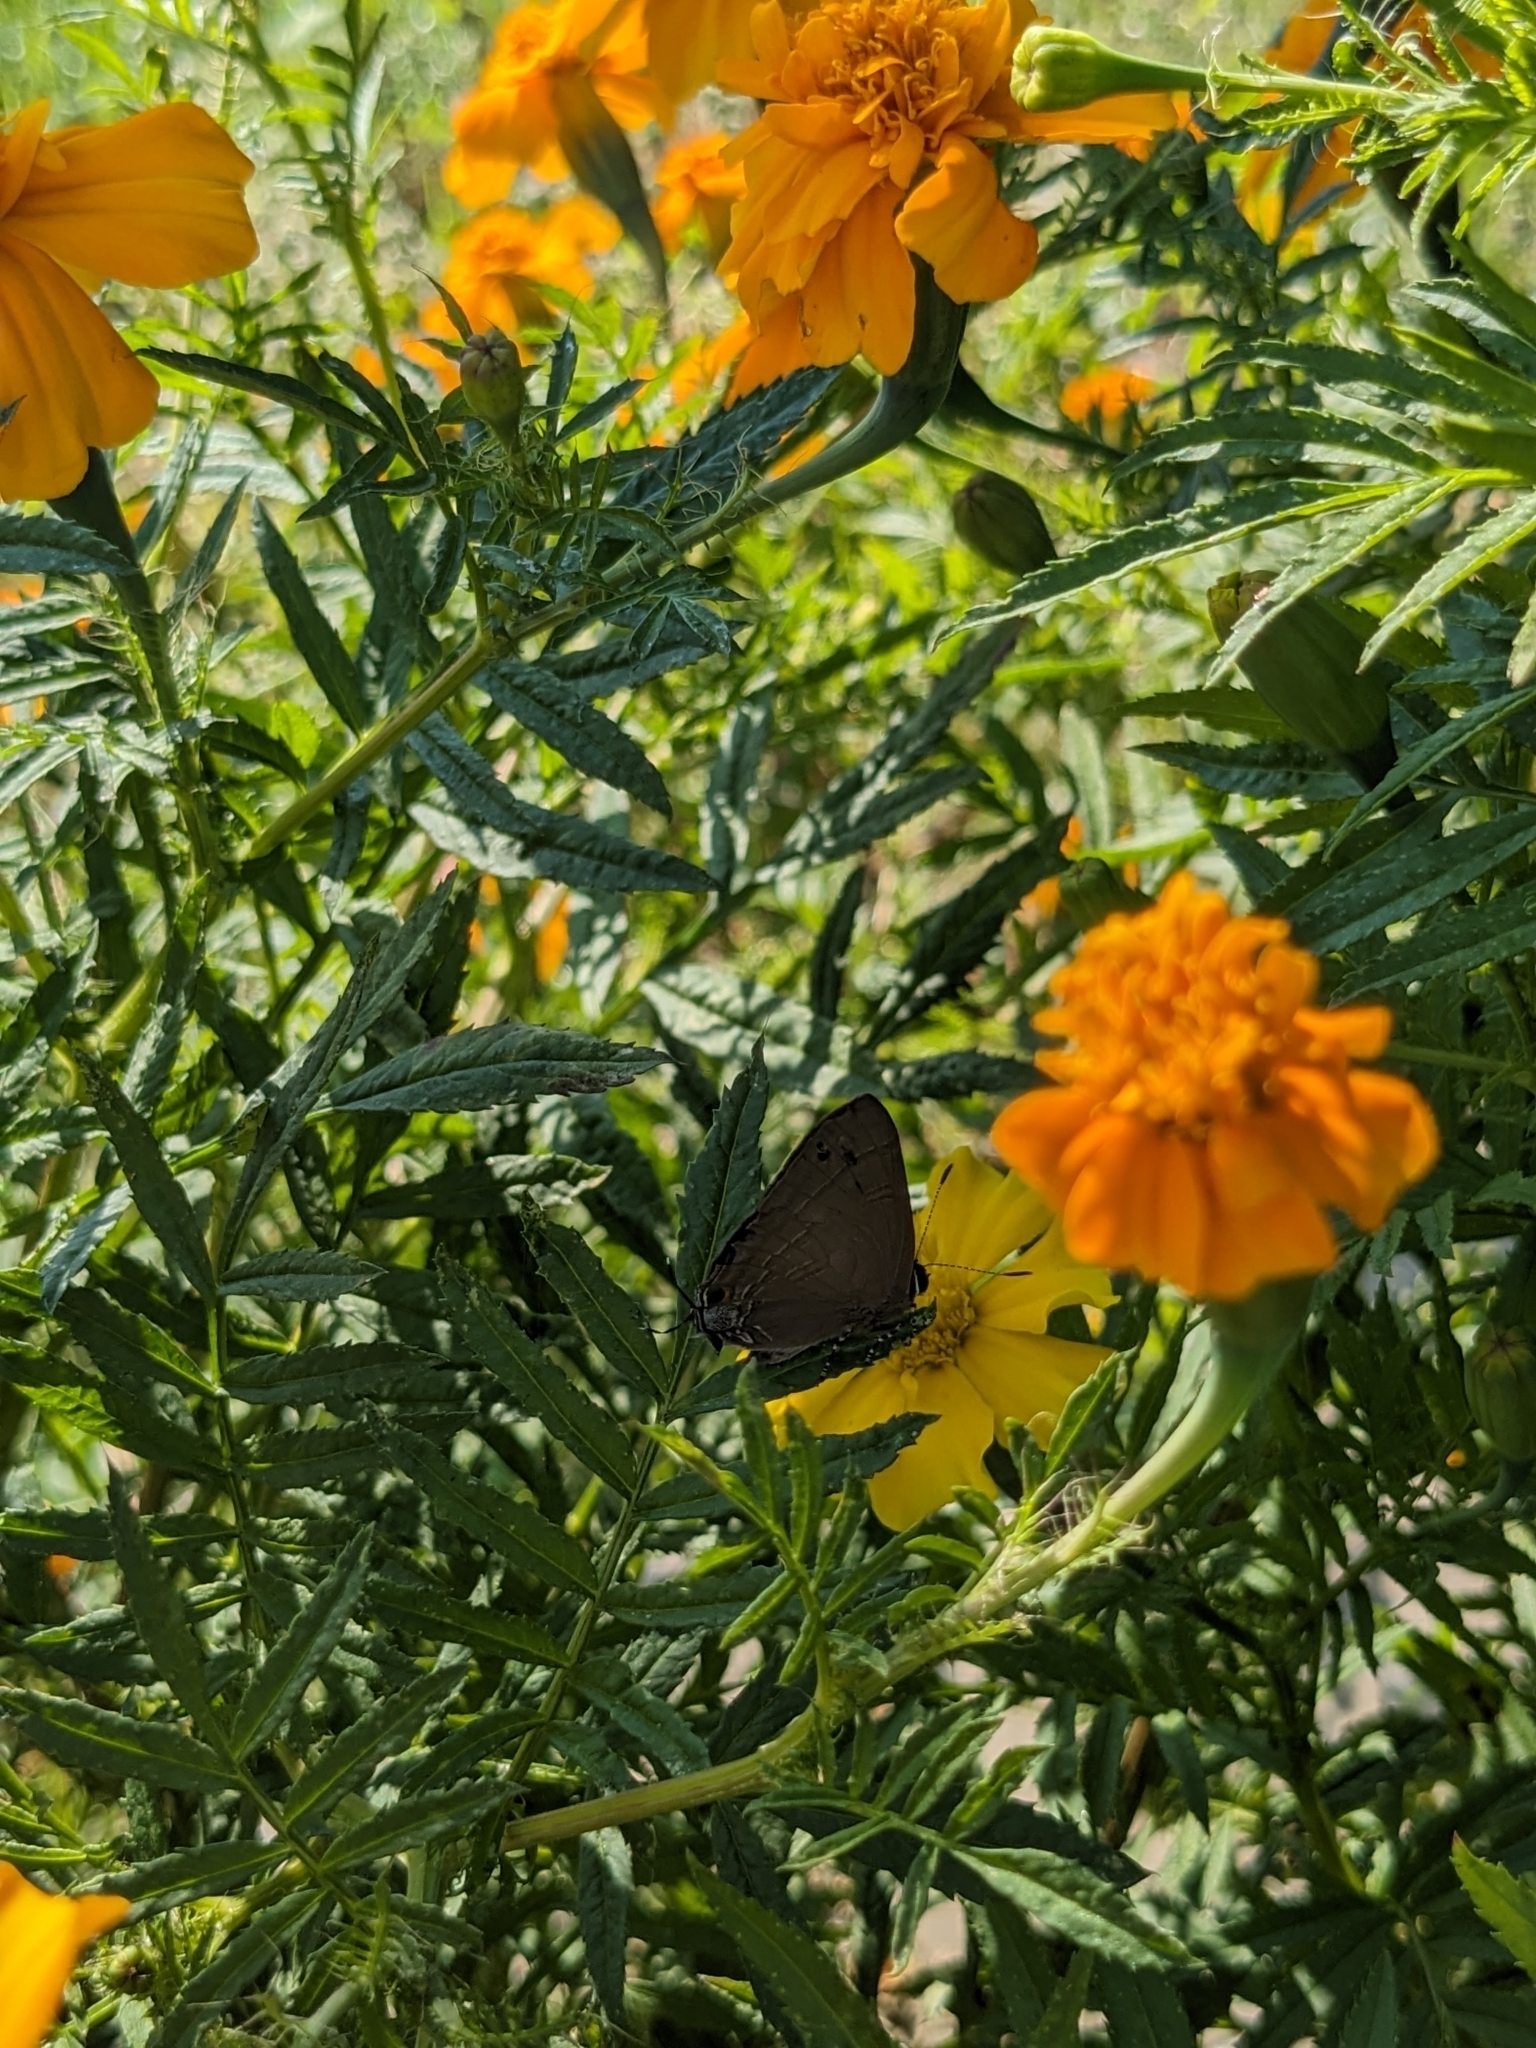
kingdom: Animalia
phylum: Arthropoda
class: Insecta
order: Lepidoptera
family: Lycaenidae
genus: Rapala
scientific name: Rapala manea
